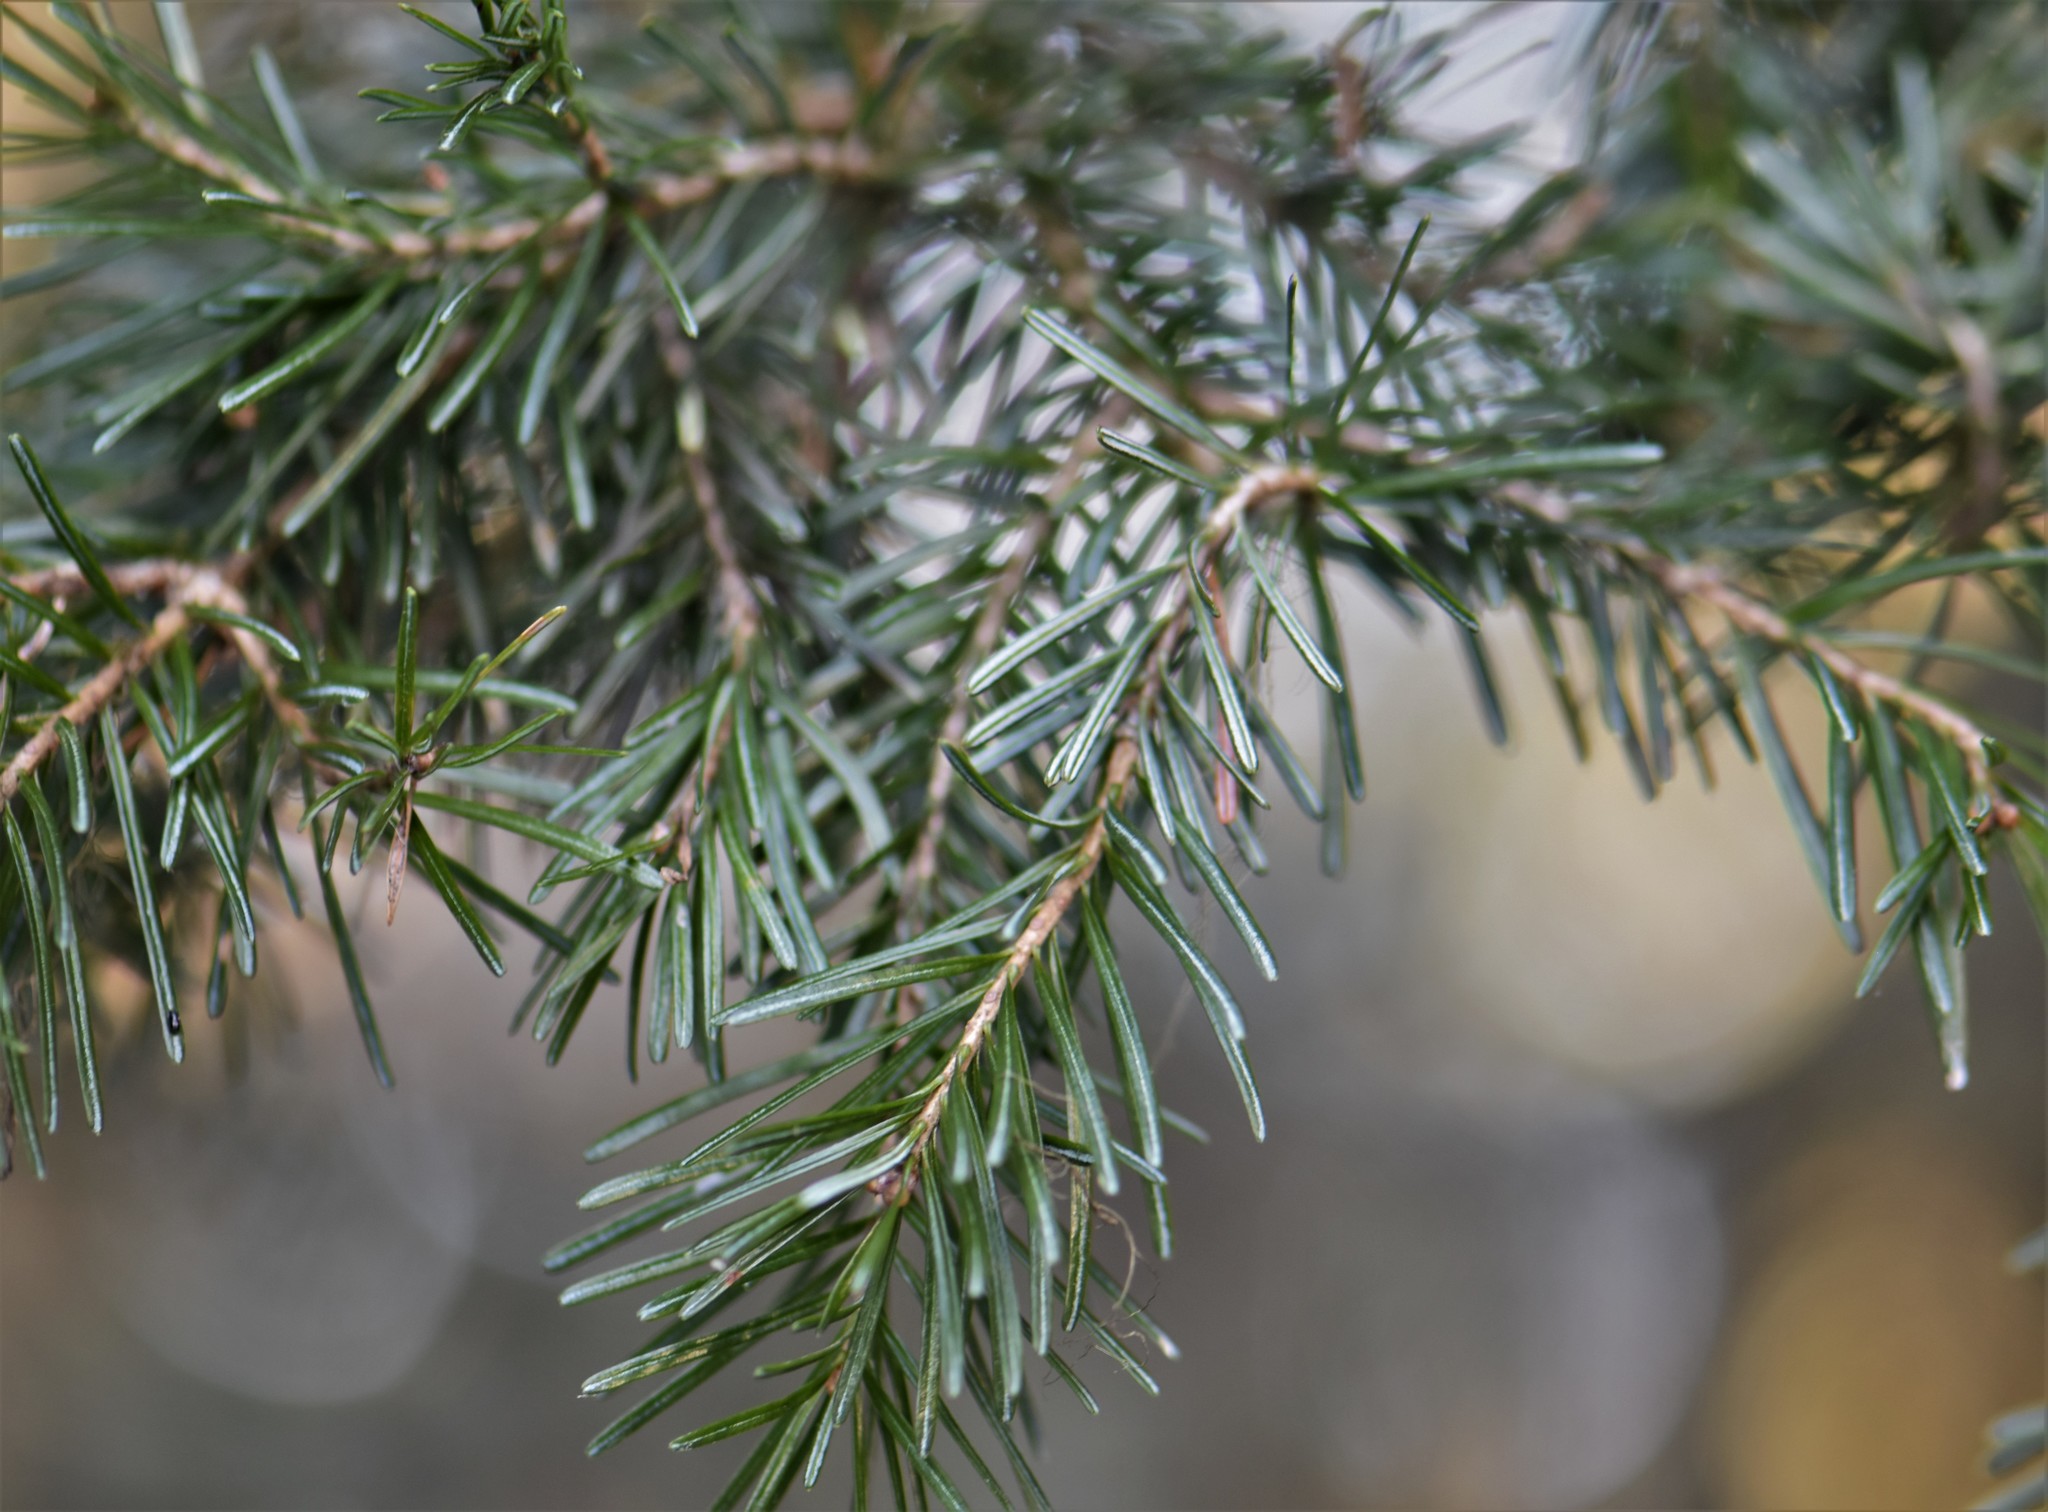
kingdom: Plantae
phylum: Tracheophyta
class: Pinopsida
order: Pinales
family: Pinaceae
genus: Abies
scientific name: Abies lasiocarpa
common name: Subalpine fir
